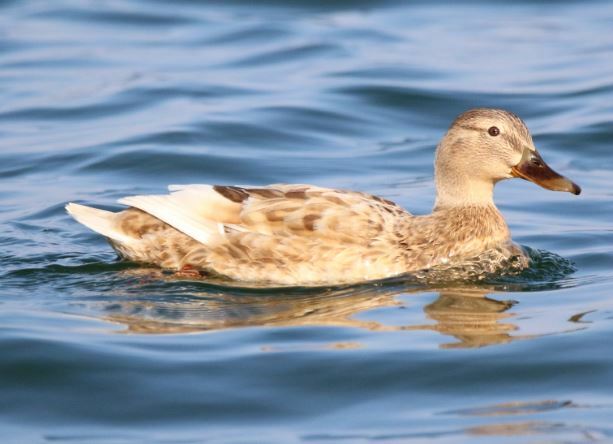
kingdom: Animalia
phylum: Chordata
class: Aves
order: Anseriformes
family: Anatidae
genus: Anas
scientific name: Anas platyrhynchos
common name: Mallard
